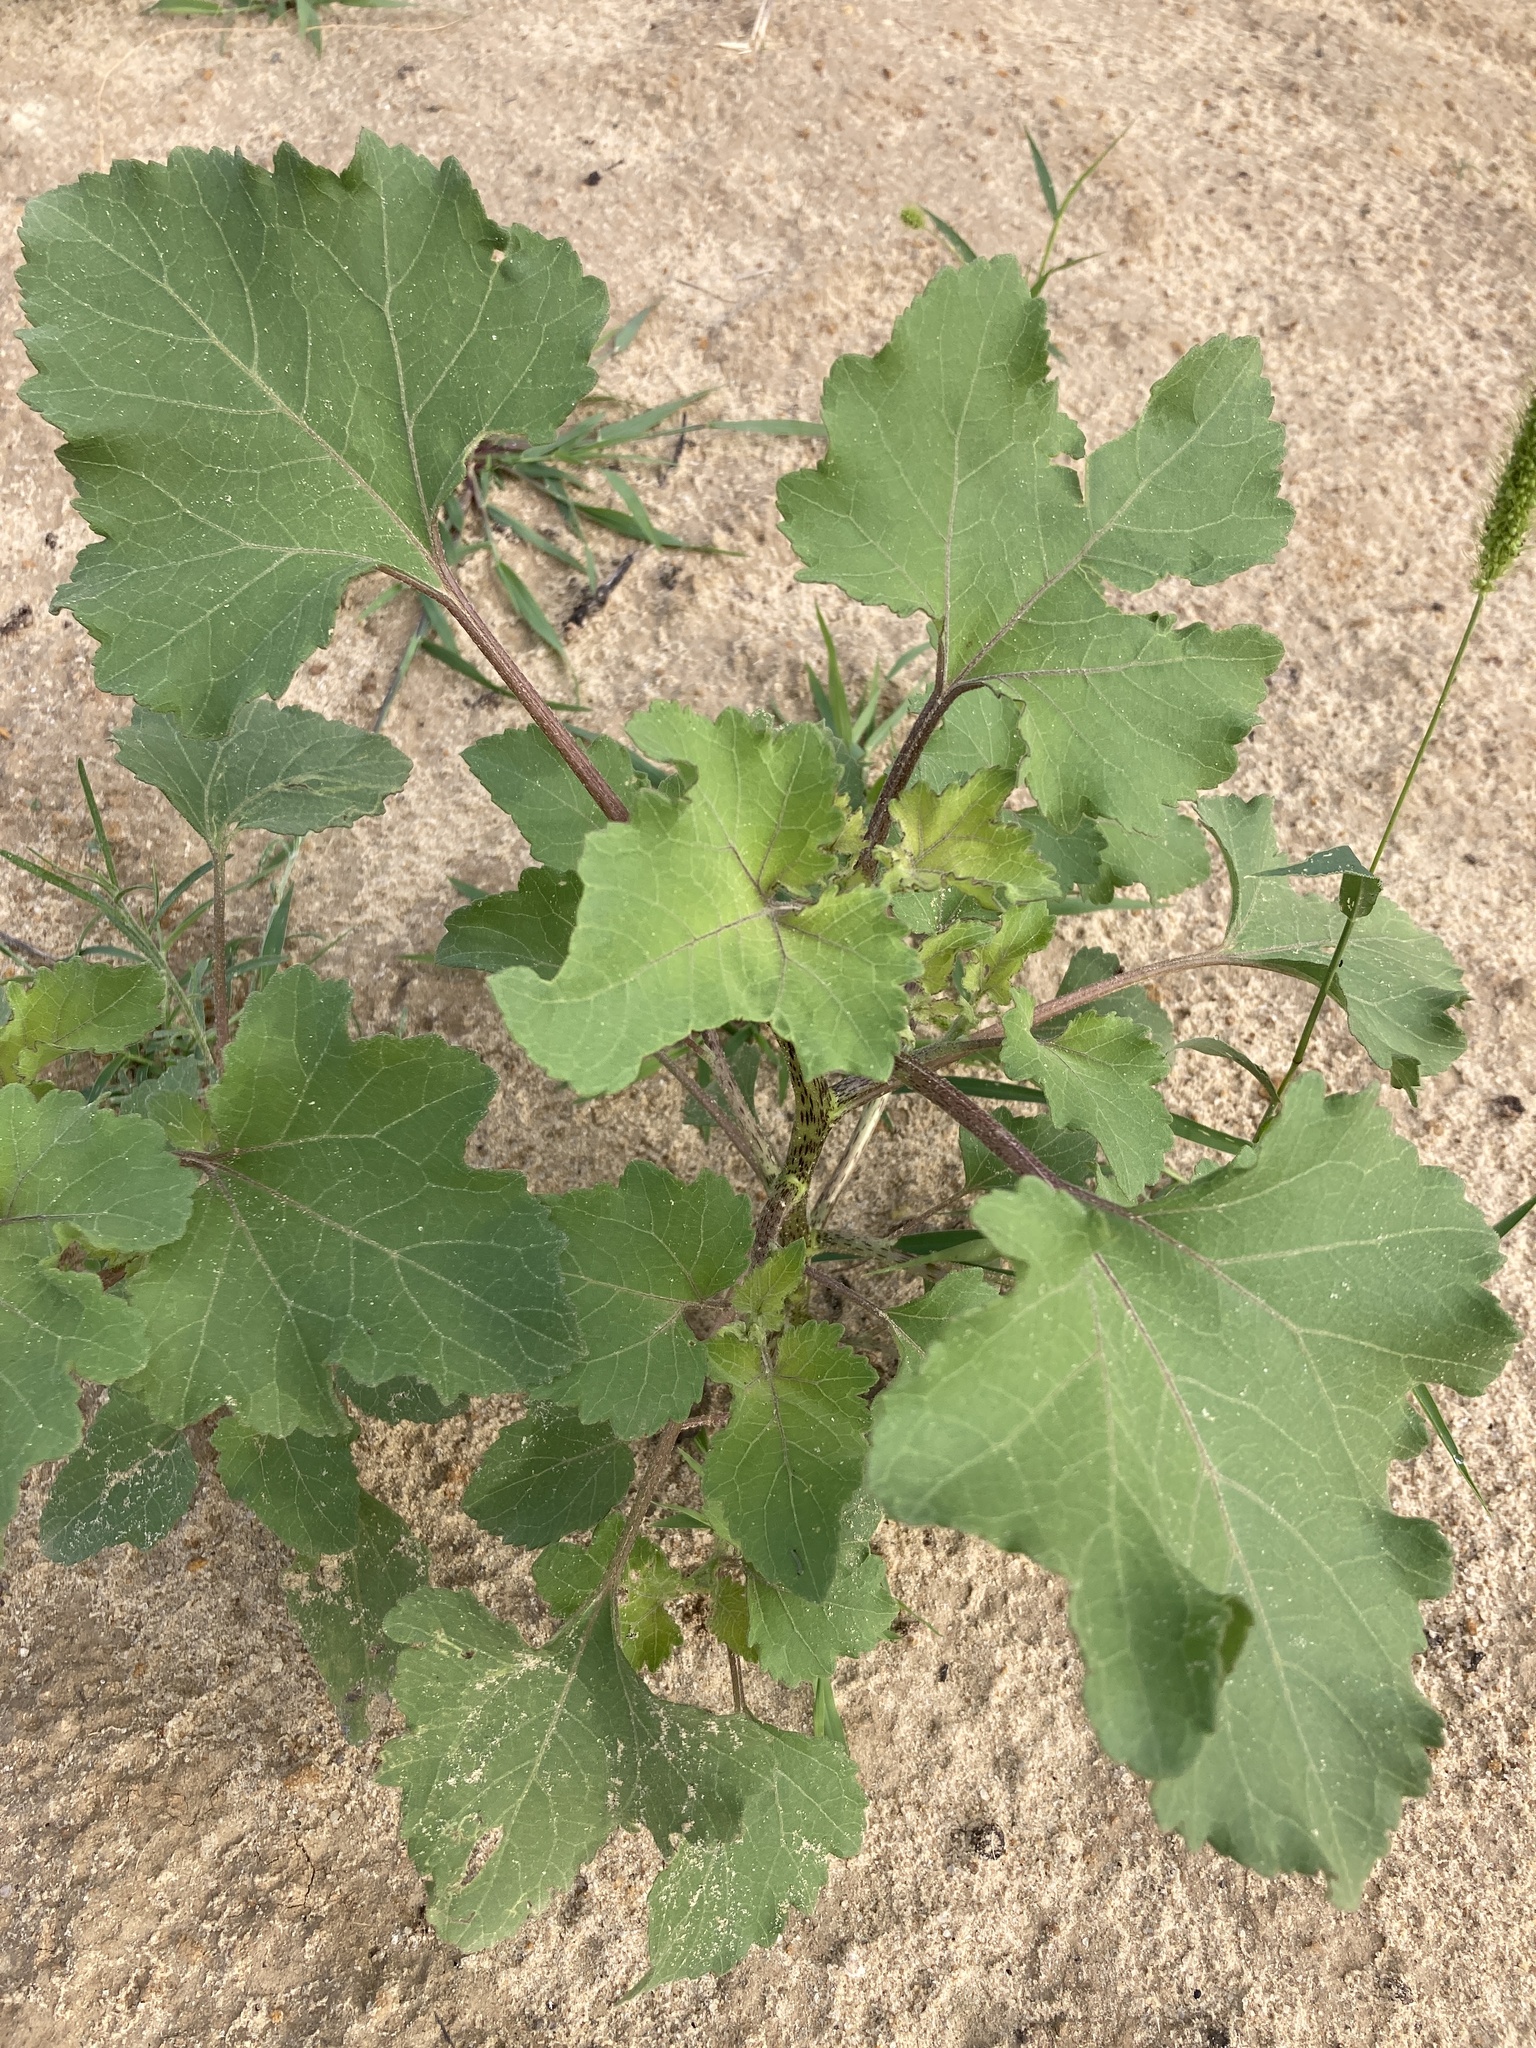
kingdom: Plantae
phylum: Tracheophyta
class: Magnoliopsida
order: Asterales
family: Asteraceae
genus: Xanthium
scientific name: Xanthium orientale
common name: Californian burr
